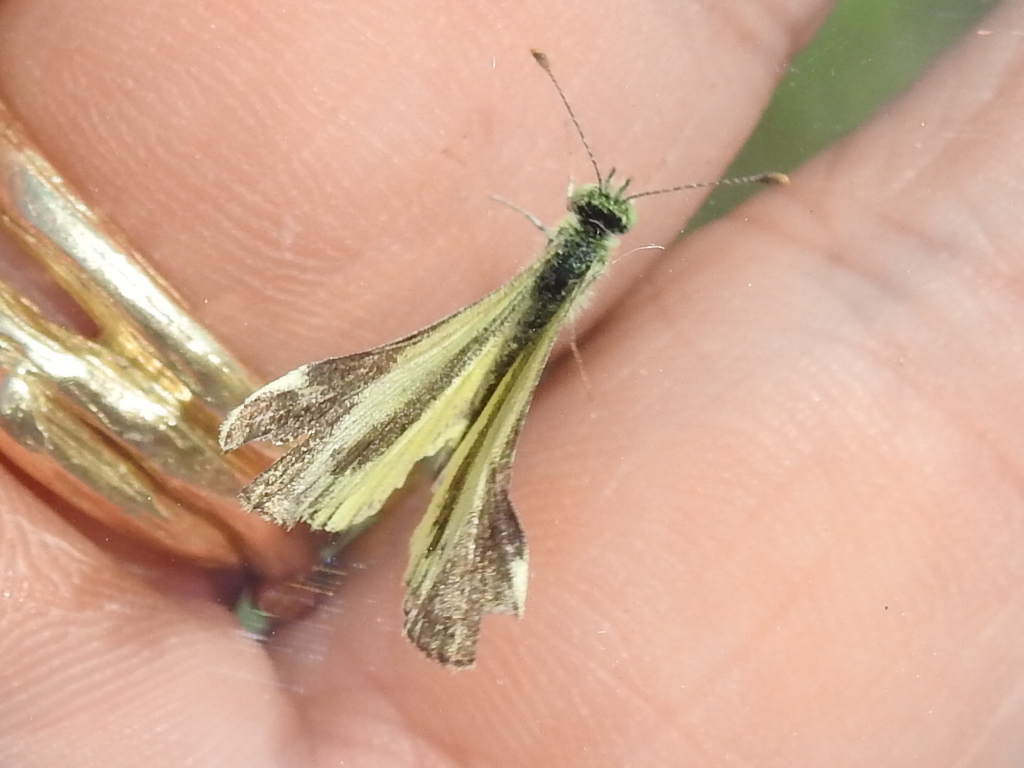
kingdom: Animalia
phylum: Arthropoda
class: Insecta
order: Lepidoptera
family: Pieridae
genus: Nathalis
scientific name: Nathalis iole
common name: Dainty sulphur
